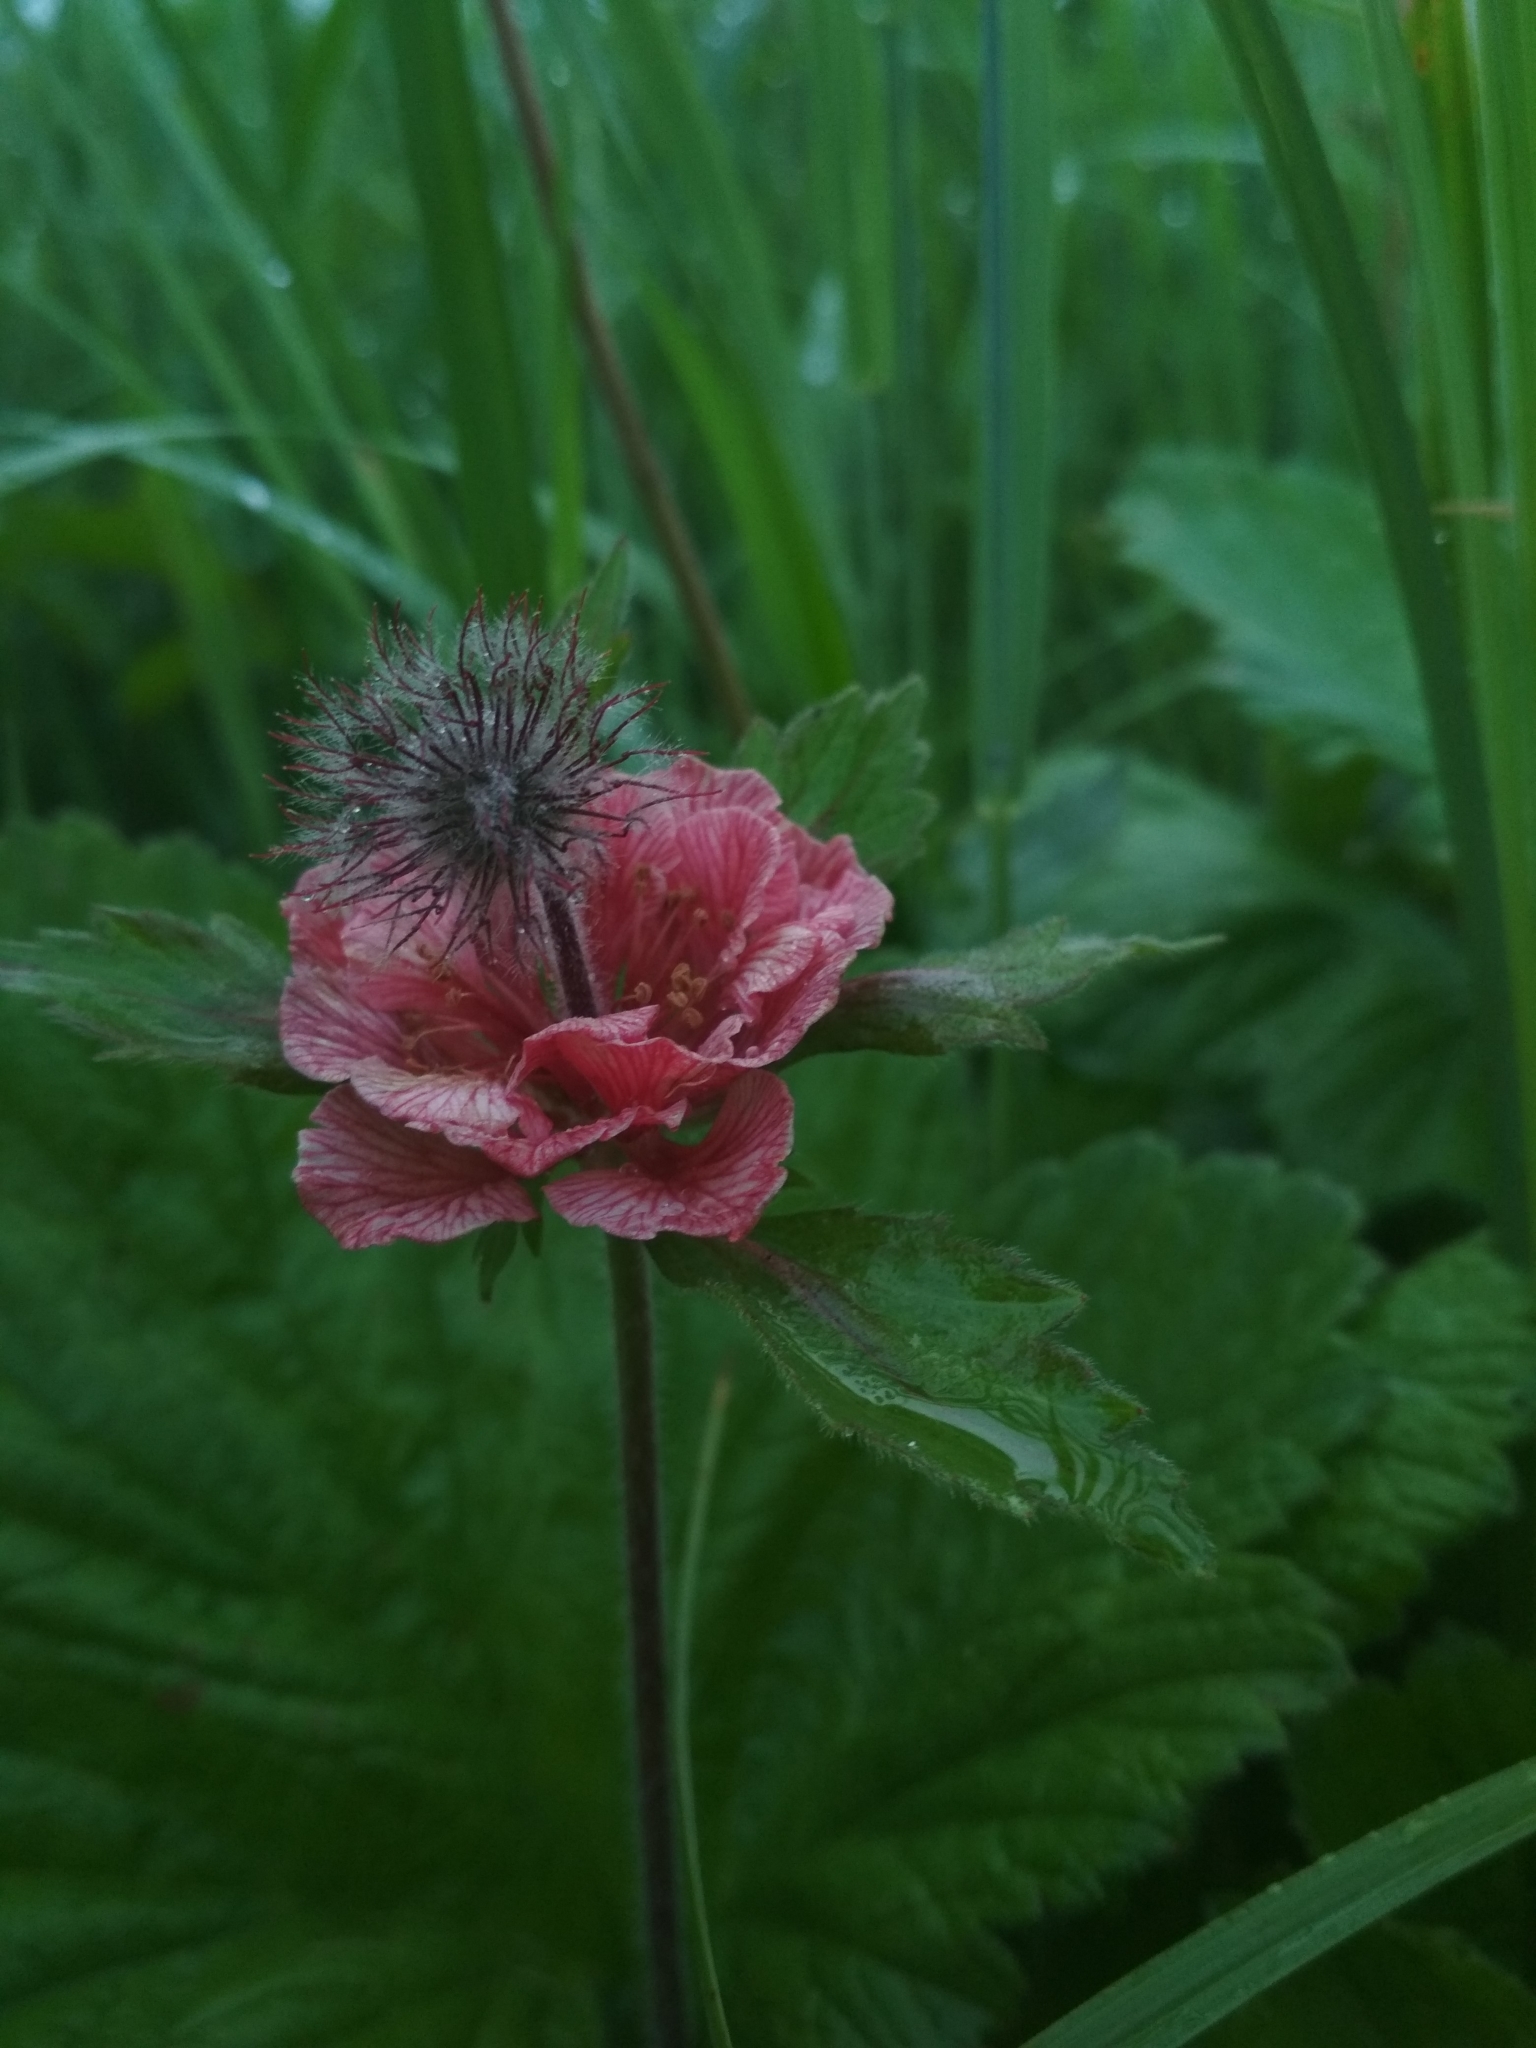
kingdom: Plantae
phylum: Tracheophyta
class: Magnoliopsida
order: Rosales
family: Rosaceae
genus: Geum
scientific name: Geum rivale
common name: Water avens
